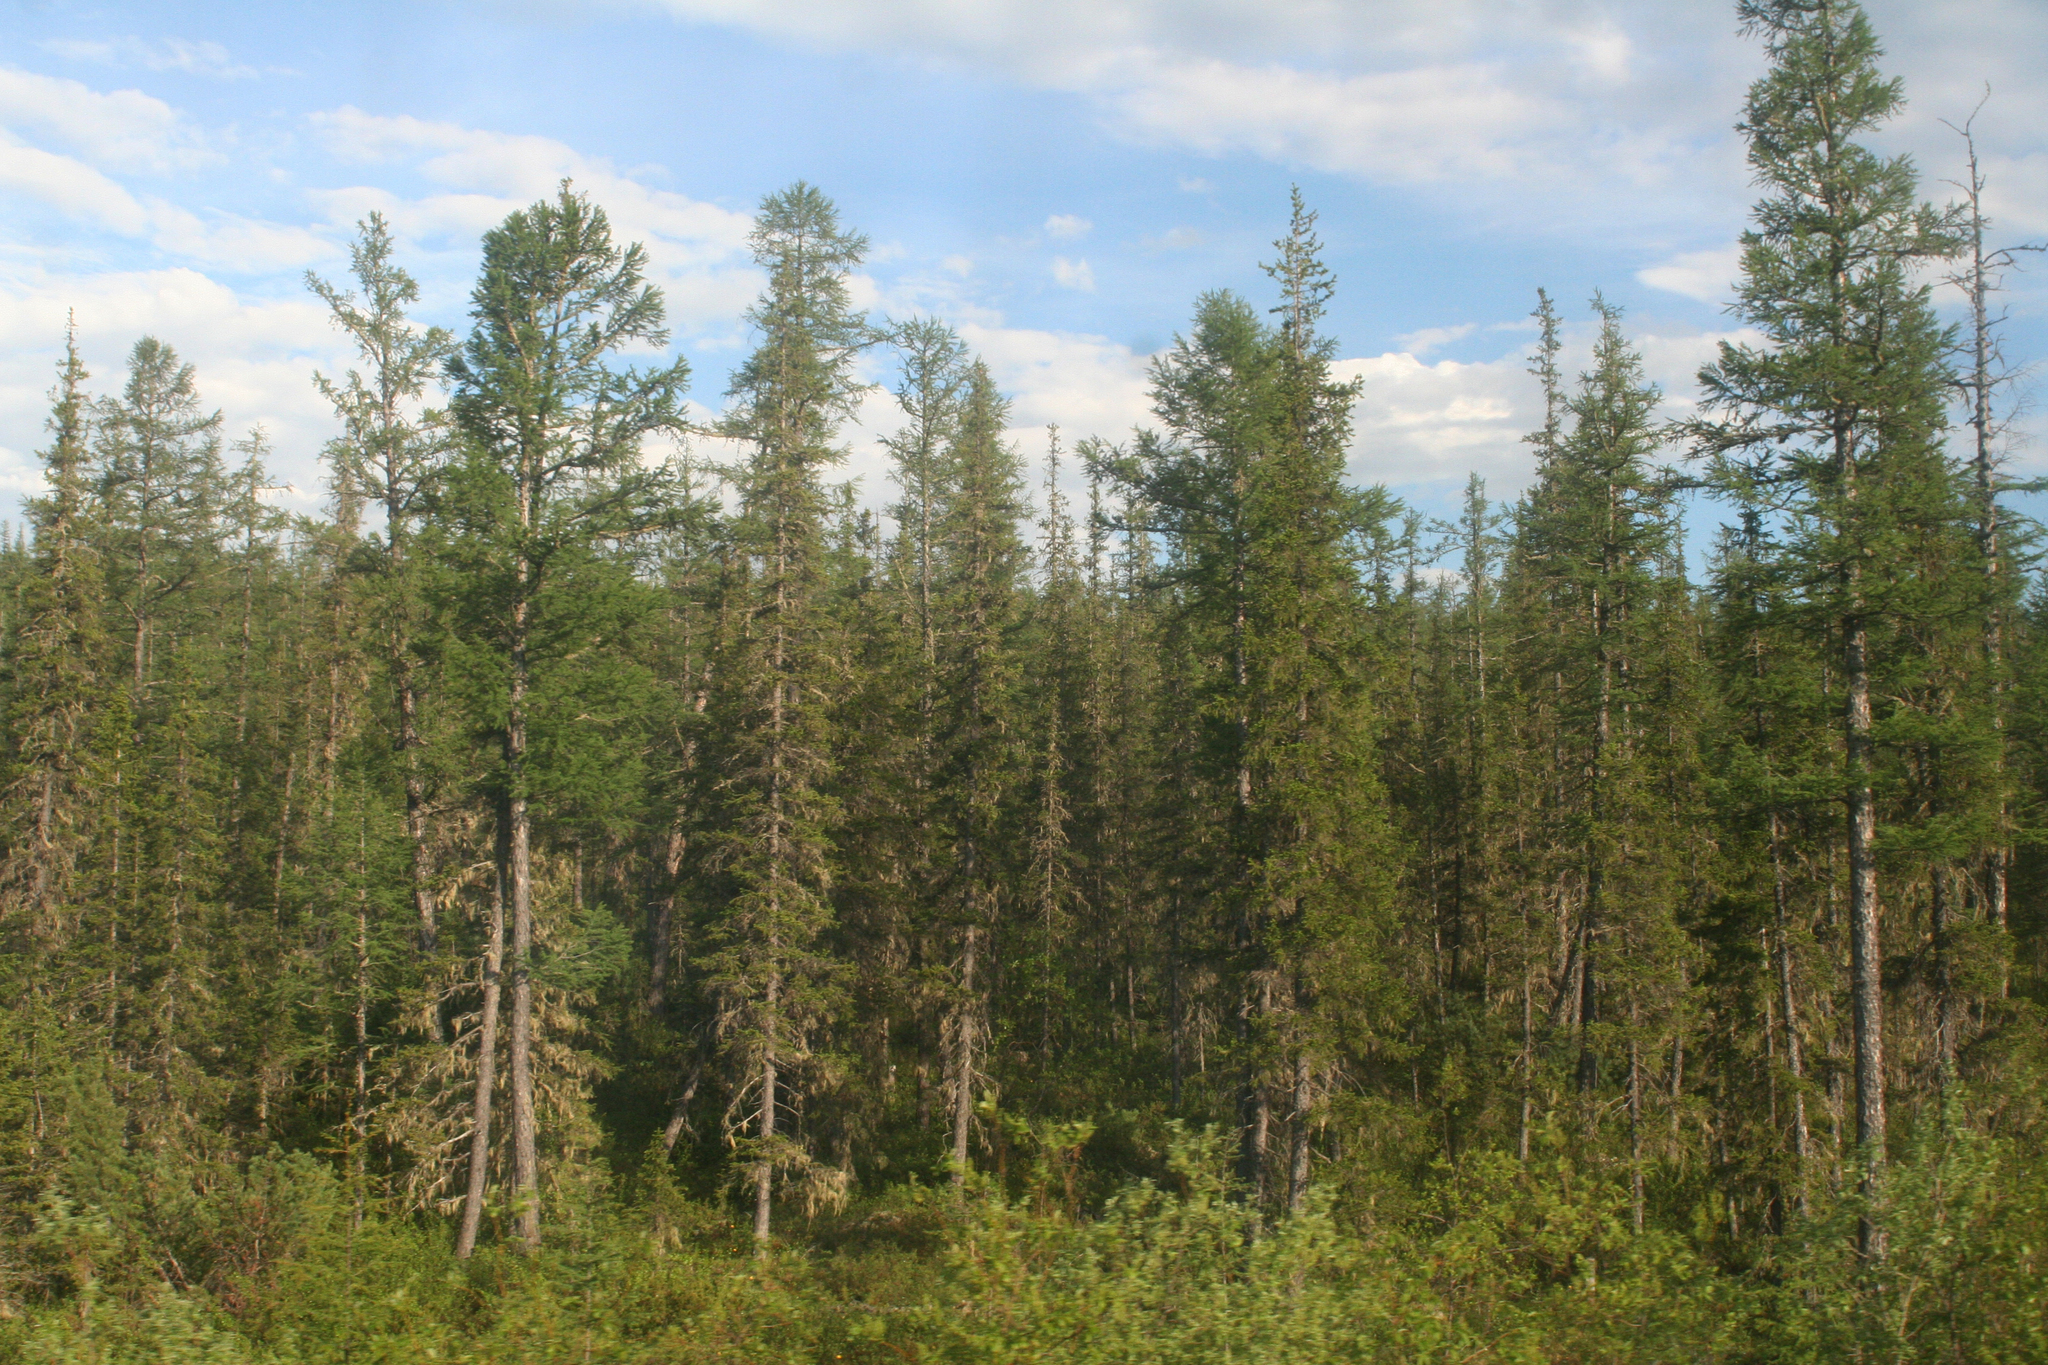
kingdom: Plantae
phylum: Tracheophyta
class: Pinopsida
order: Pinales
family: Pinaceae
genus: Picea
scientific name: Picea obovata
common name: Siberian spruce
